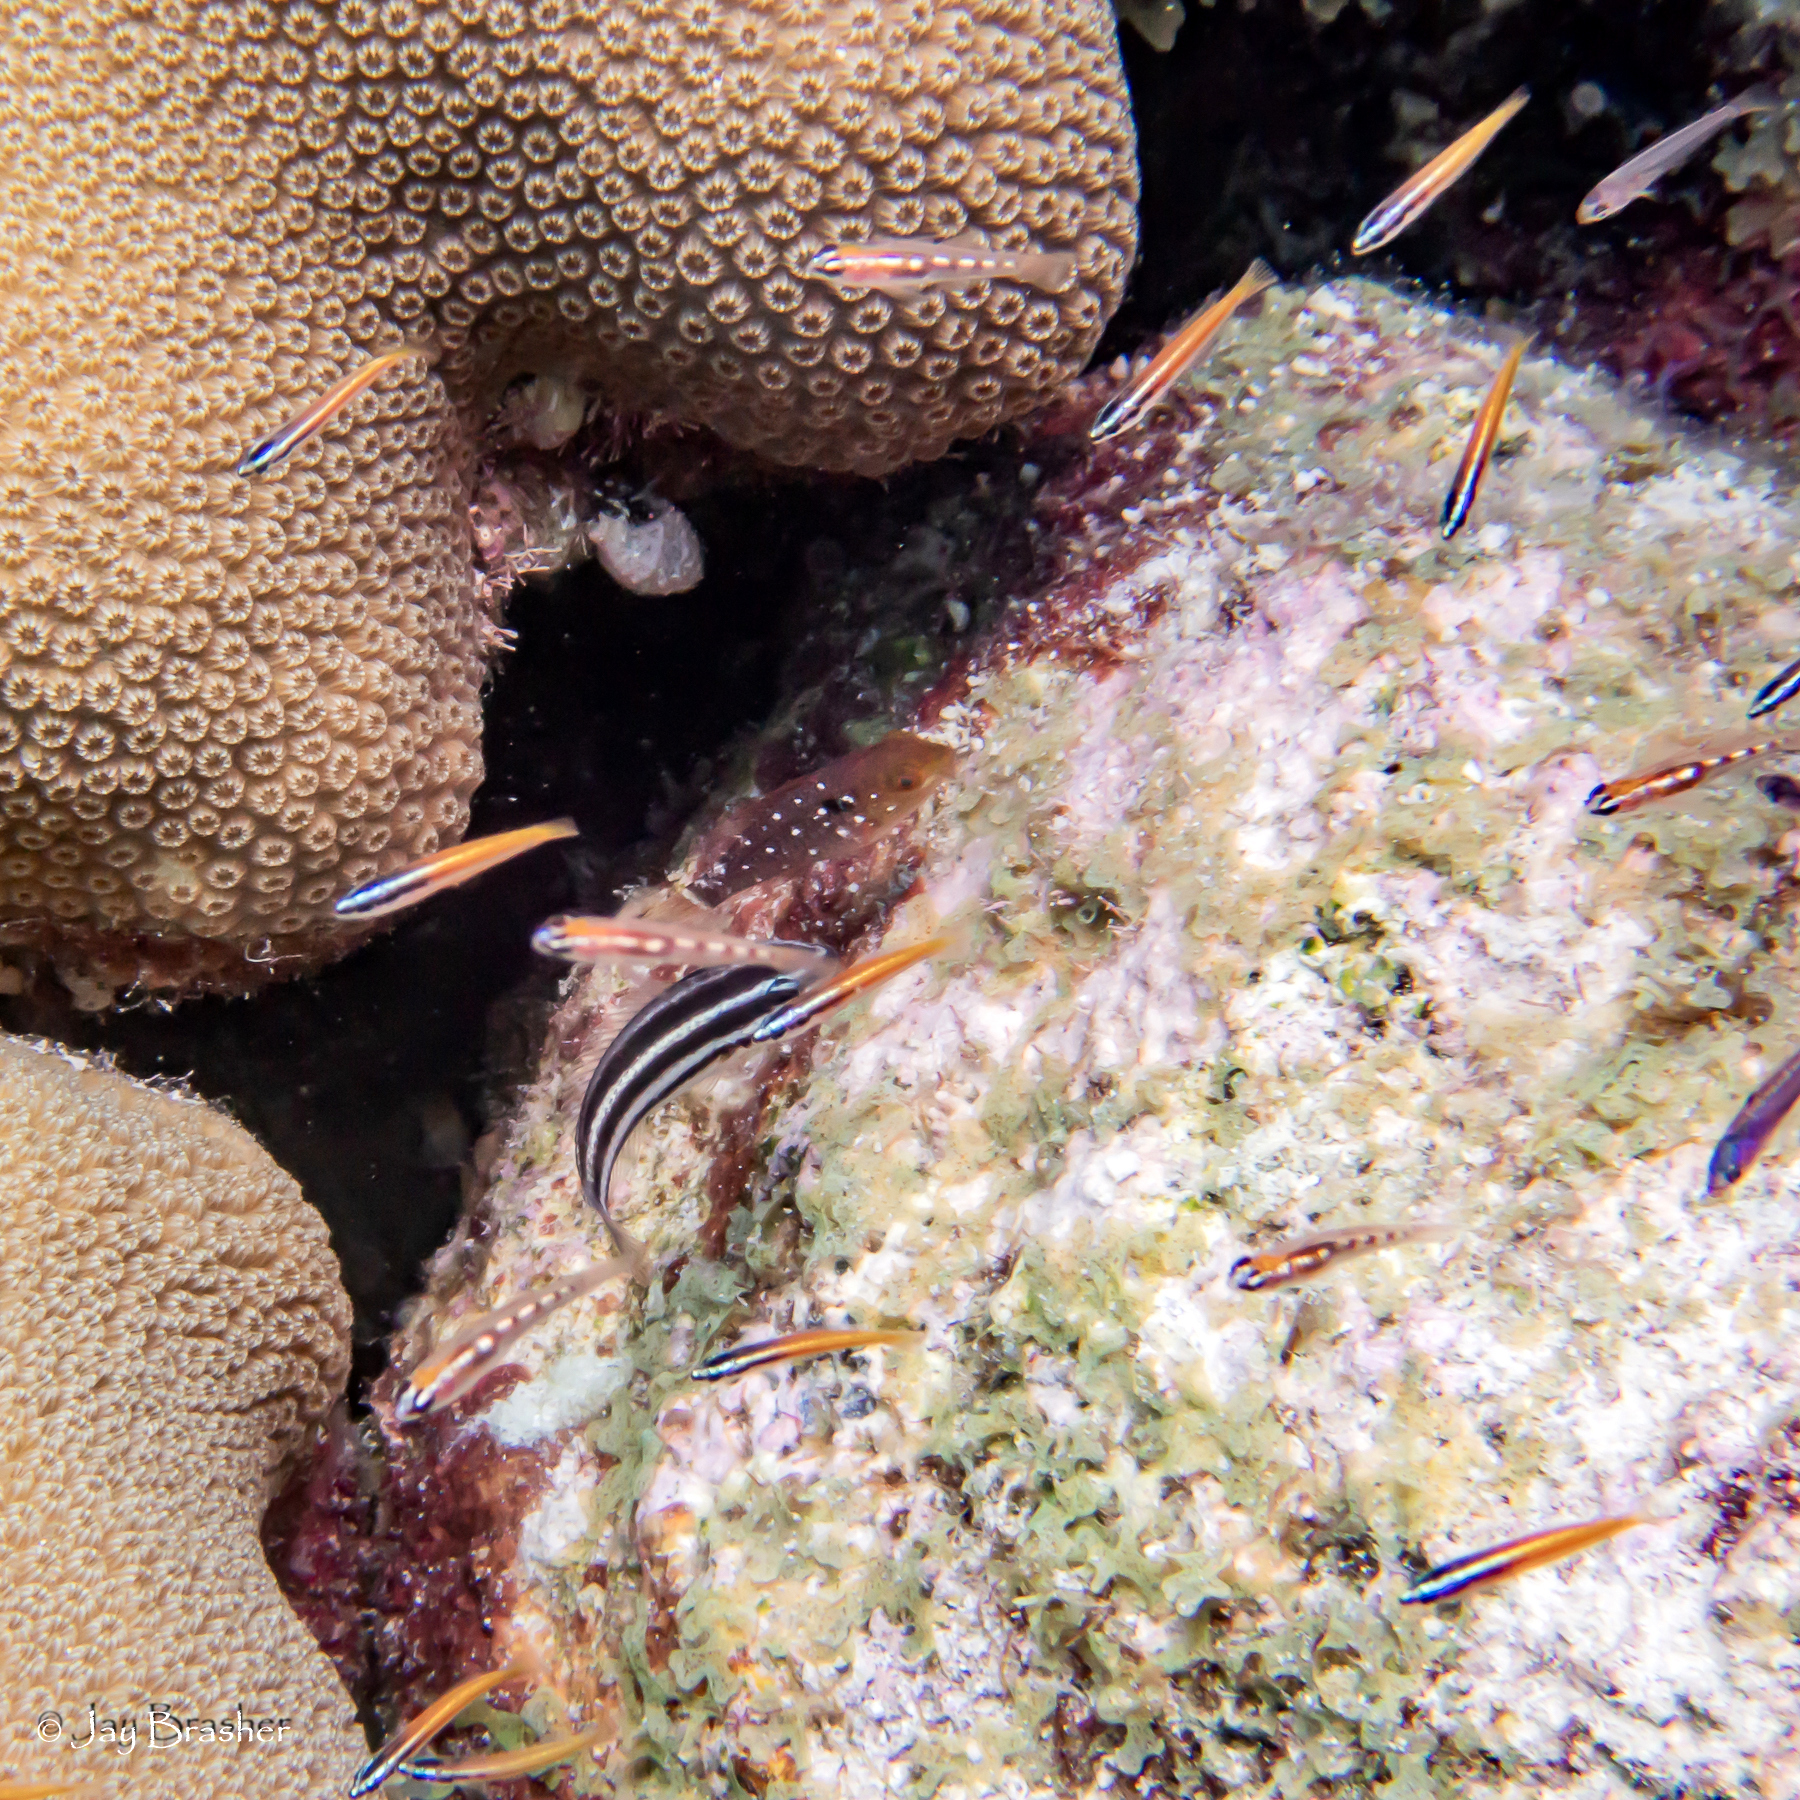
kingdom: Animalia
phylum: Chordata
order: Perciformes
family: Scaridae
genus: Sparisoma
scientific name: Sparisoma viride
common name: Stoplight parrotfish
